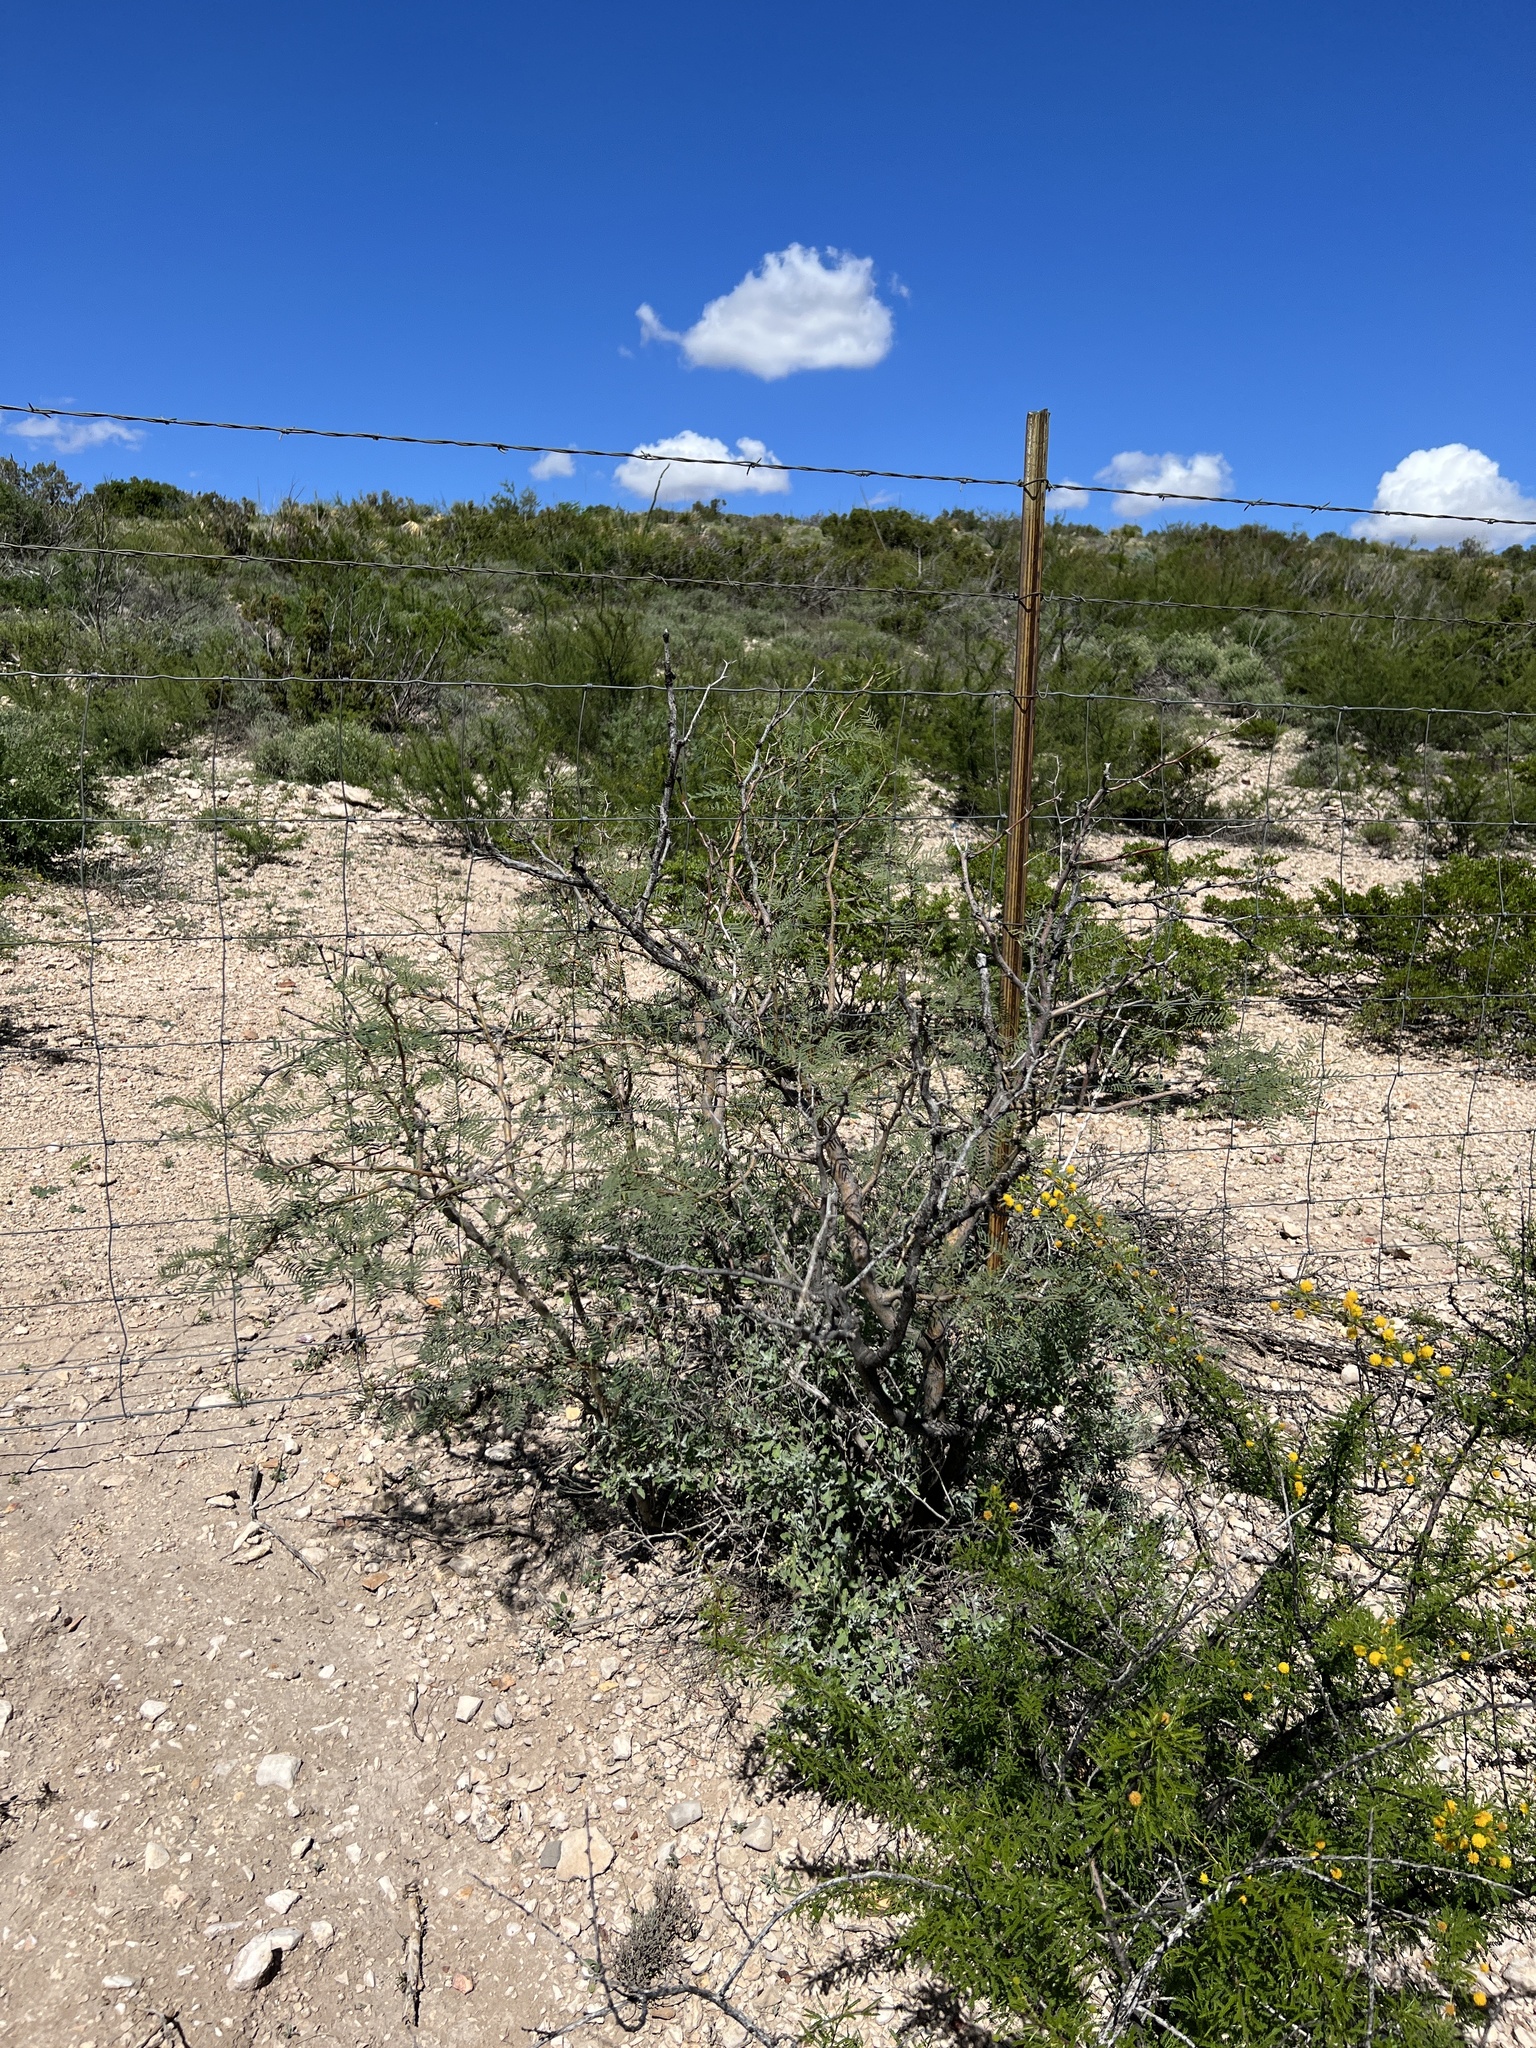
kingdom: Plantae
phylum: Tracheophyta
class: Magnoliopsida
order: Fabales
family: Fabaceae
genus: Prosopis
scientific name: Prosopis glandulosa
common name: Honey mesquite
